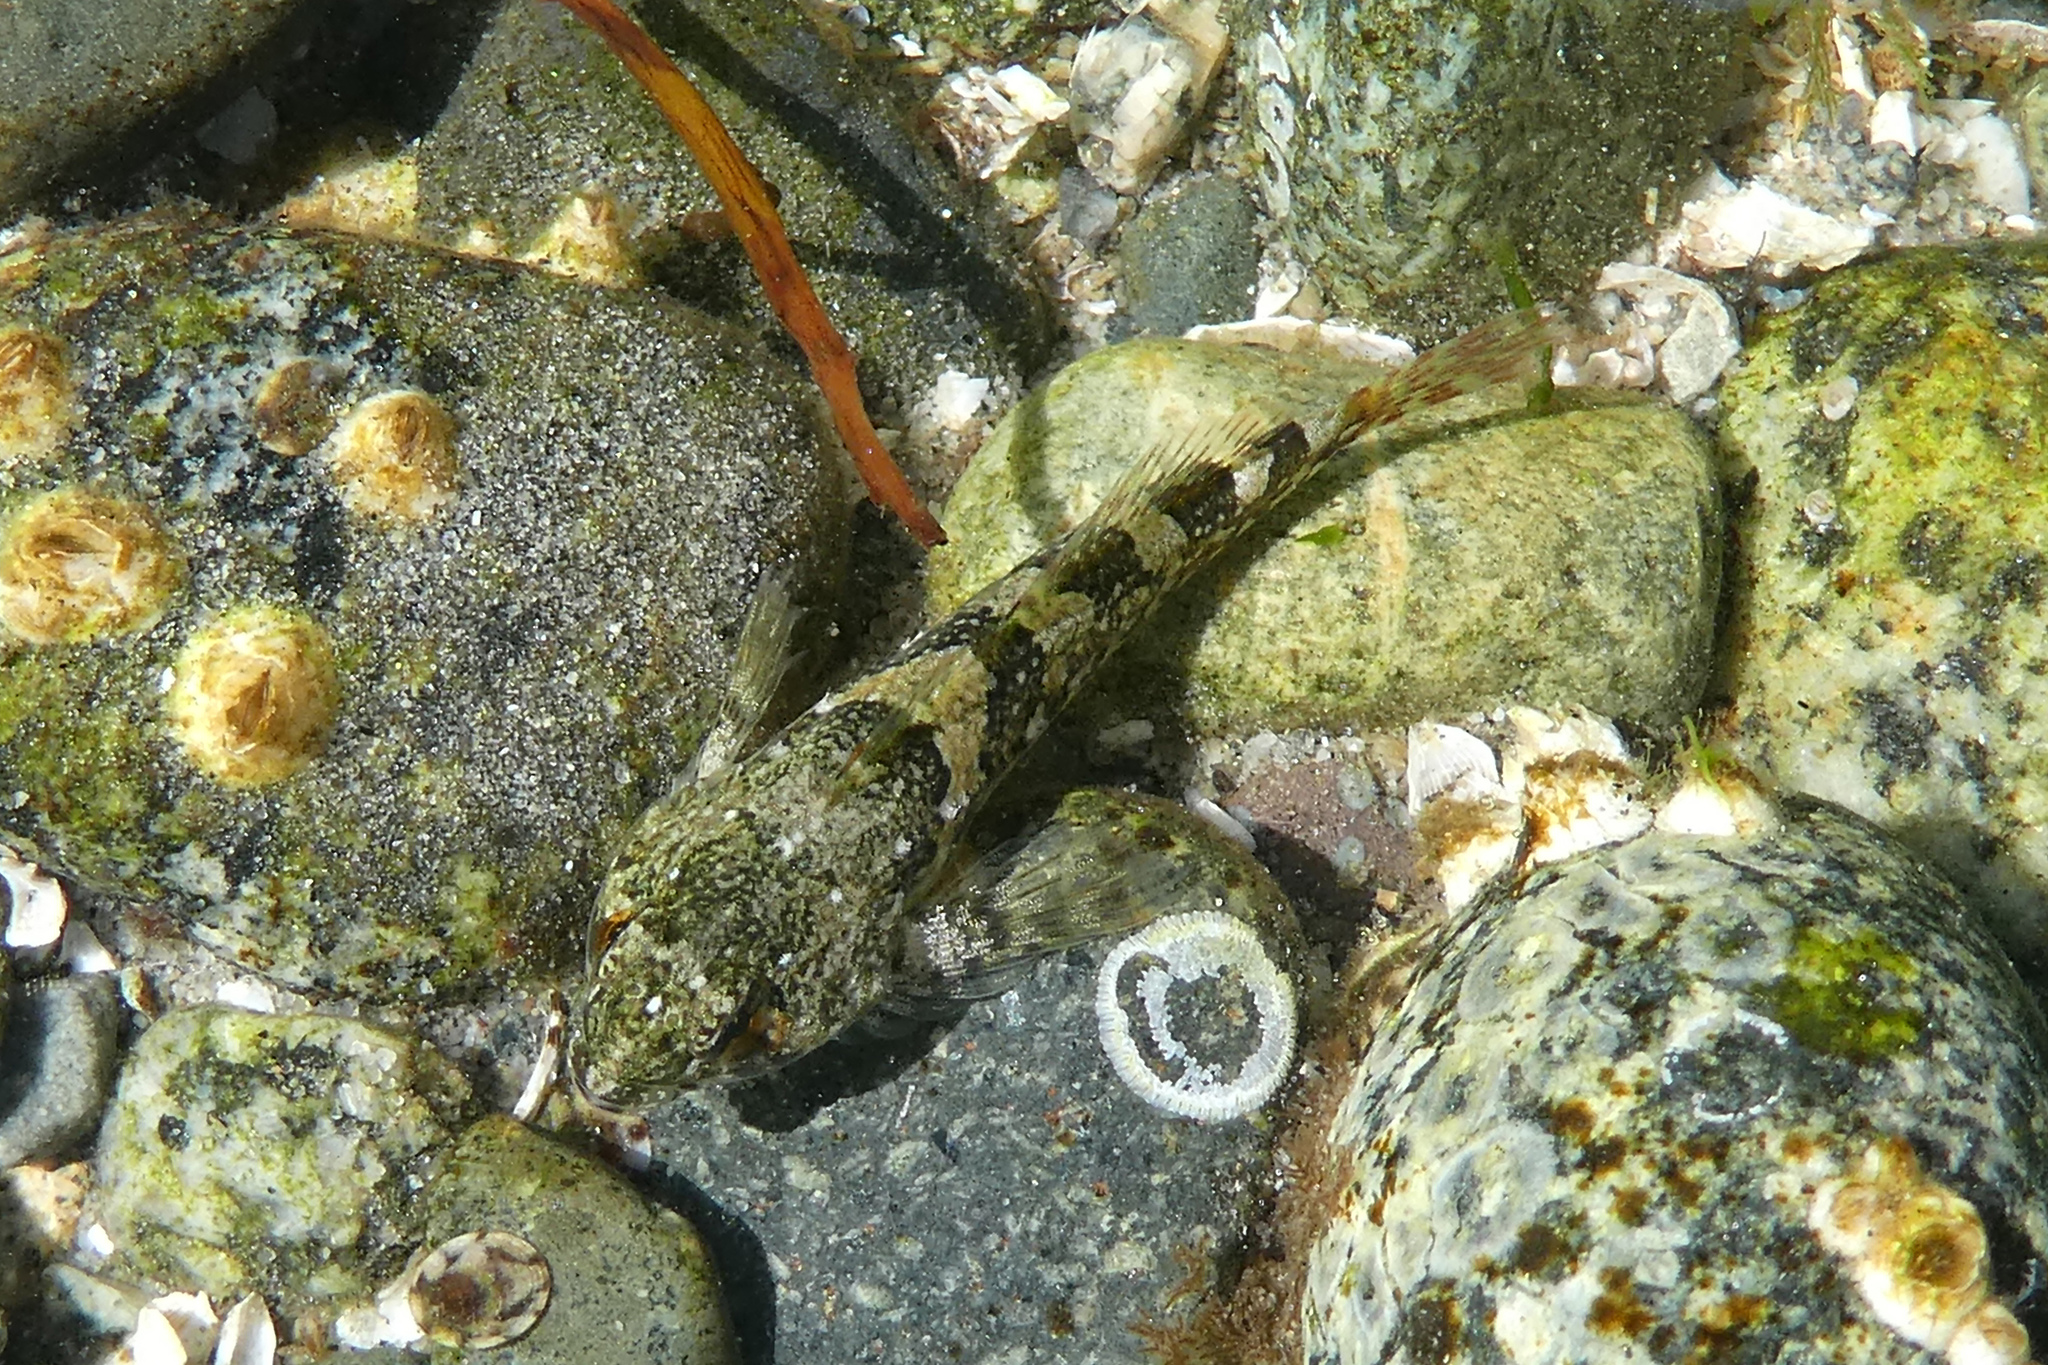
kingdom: Animalia
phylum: Chordata
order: Scorpaeniformes
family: Cottidae
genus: Oligocottus
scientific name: Oligocottus maculosus
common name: Tidepool sculpin
